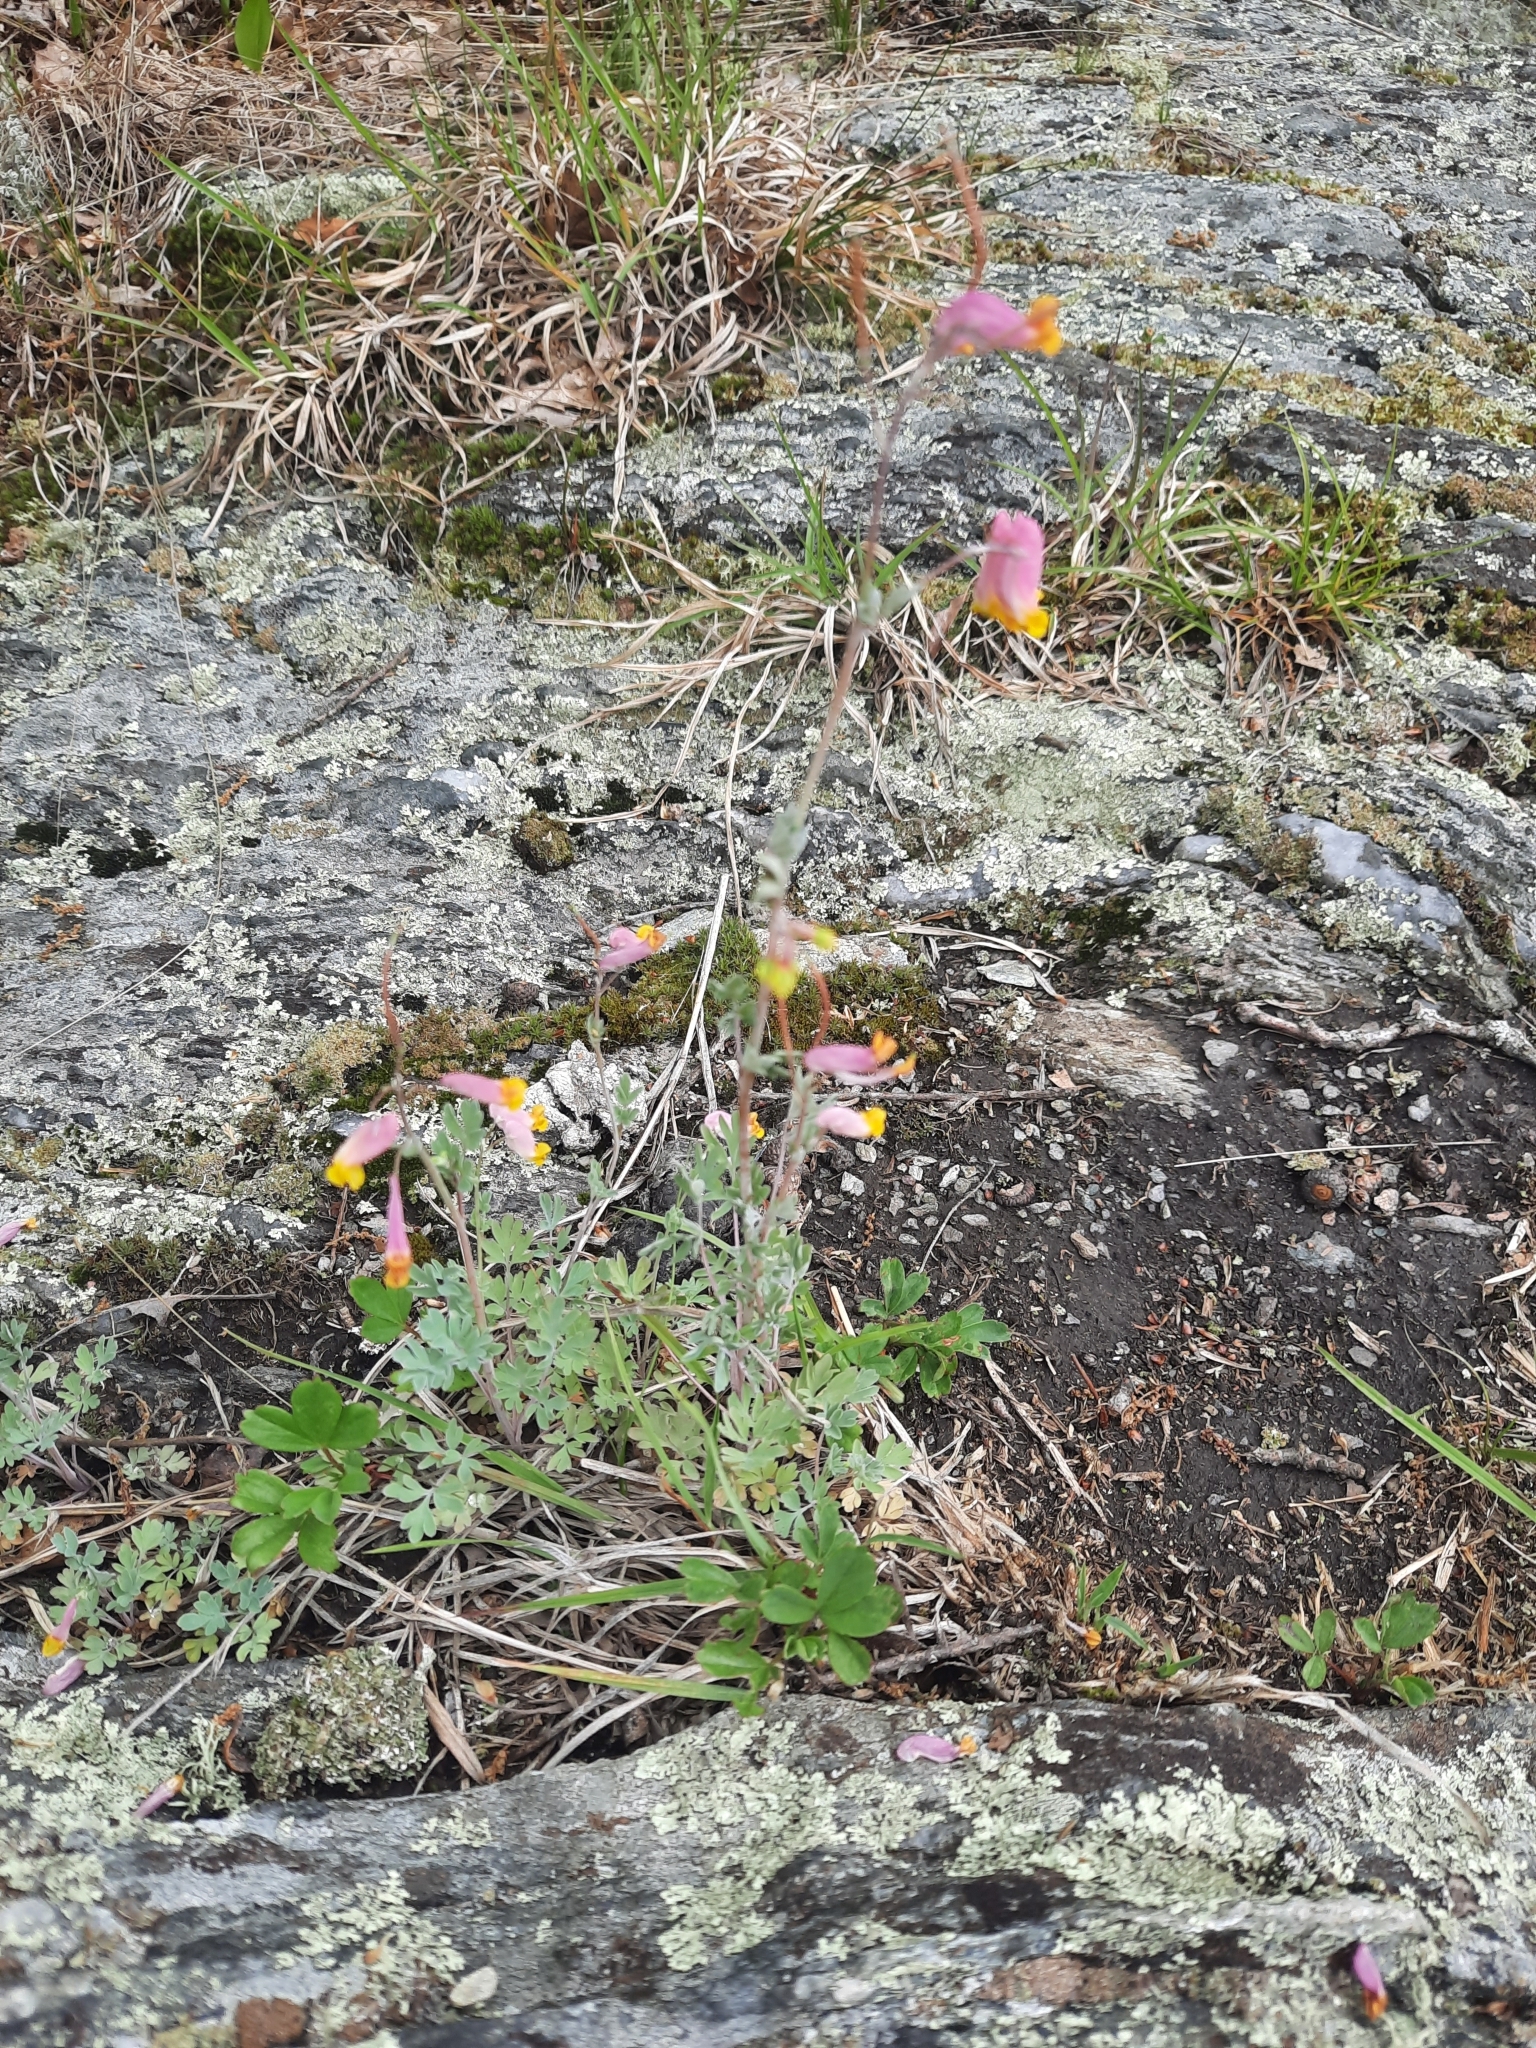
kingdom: Plantae
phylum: Tracheophyta
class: Magnoliopsida
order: Ranunculales
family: Papaveraceae
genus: Capnoides
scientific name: Capnoides sempervirens
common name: Rock harlequin
